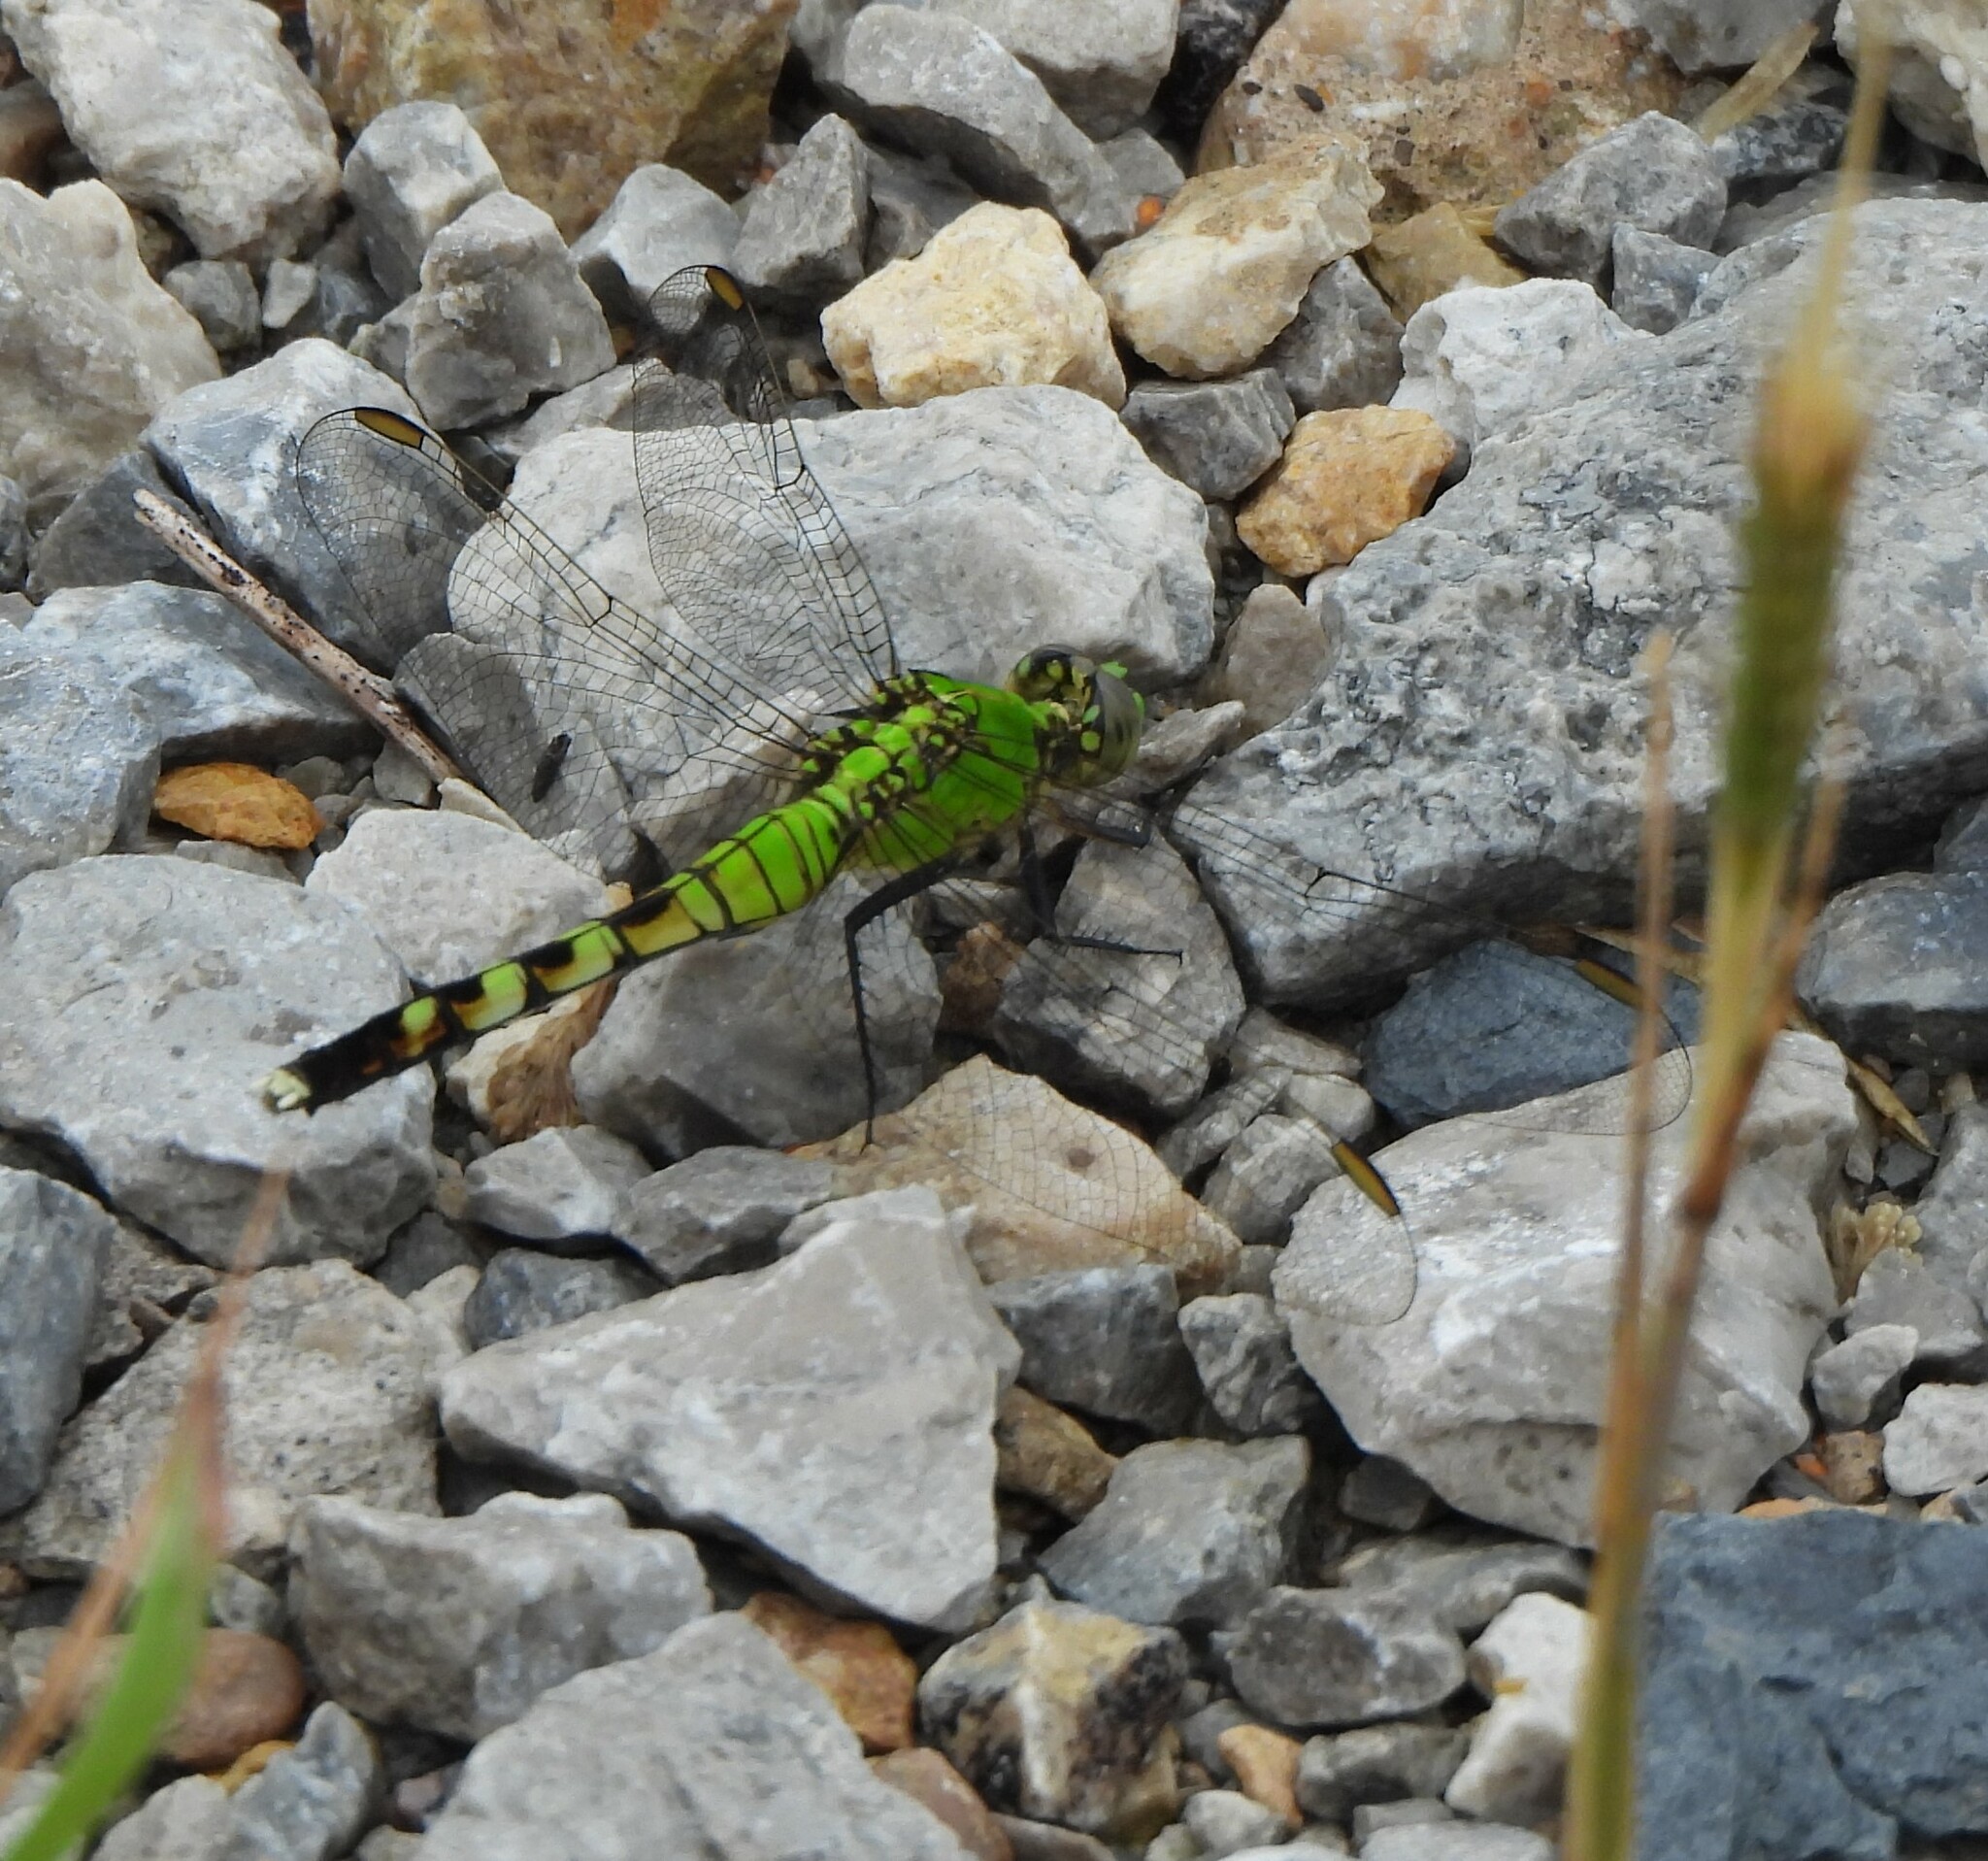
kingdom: Animalia
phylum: Arthropoda
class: Insecta
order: Odonata
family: Libellulidae
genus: Erythemis
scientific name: Erythemis simplicicollis
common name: Eastern pondhawk
